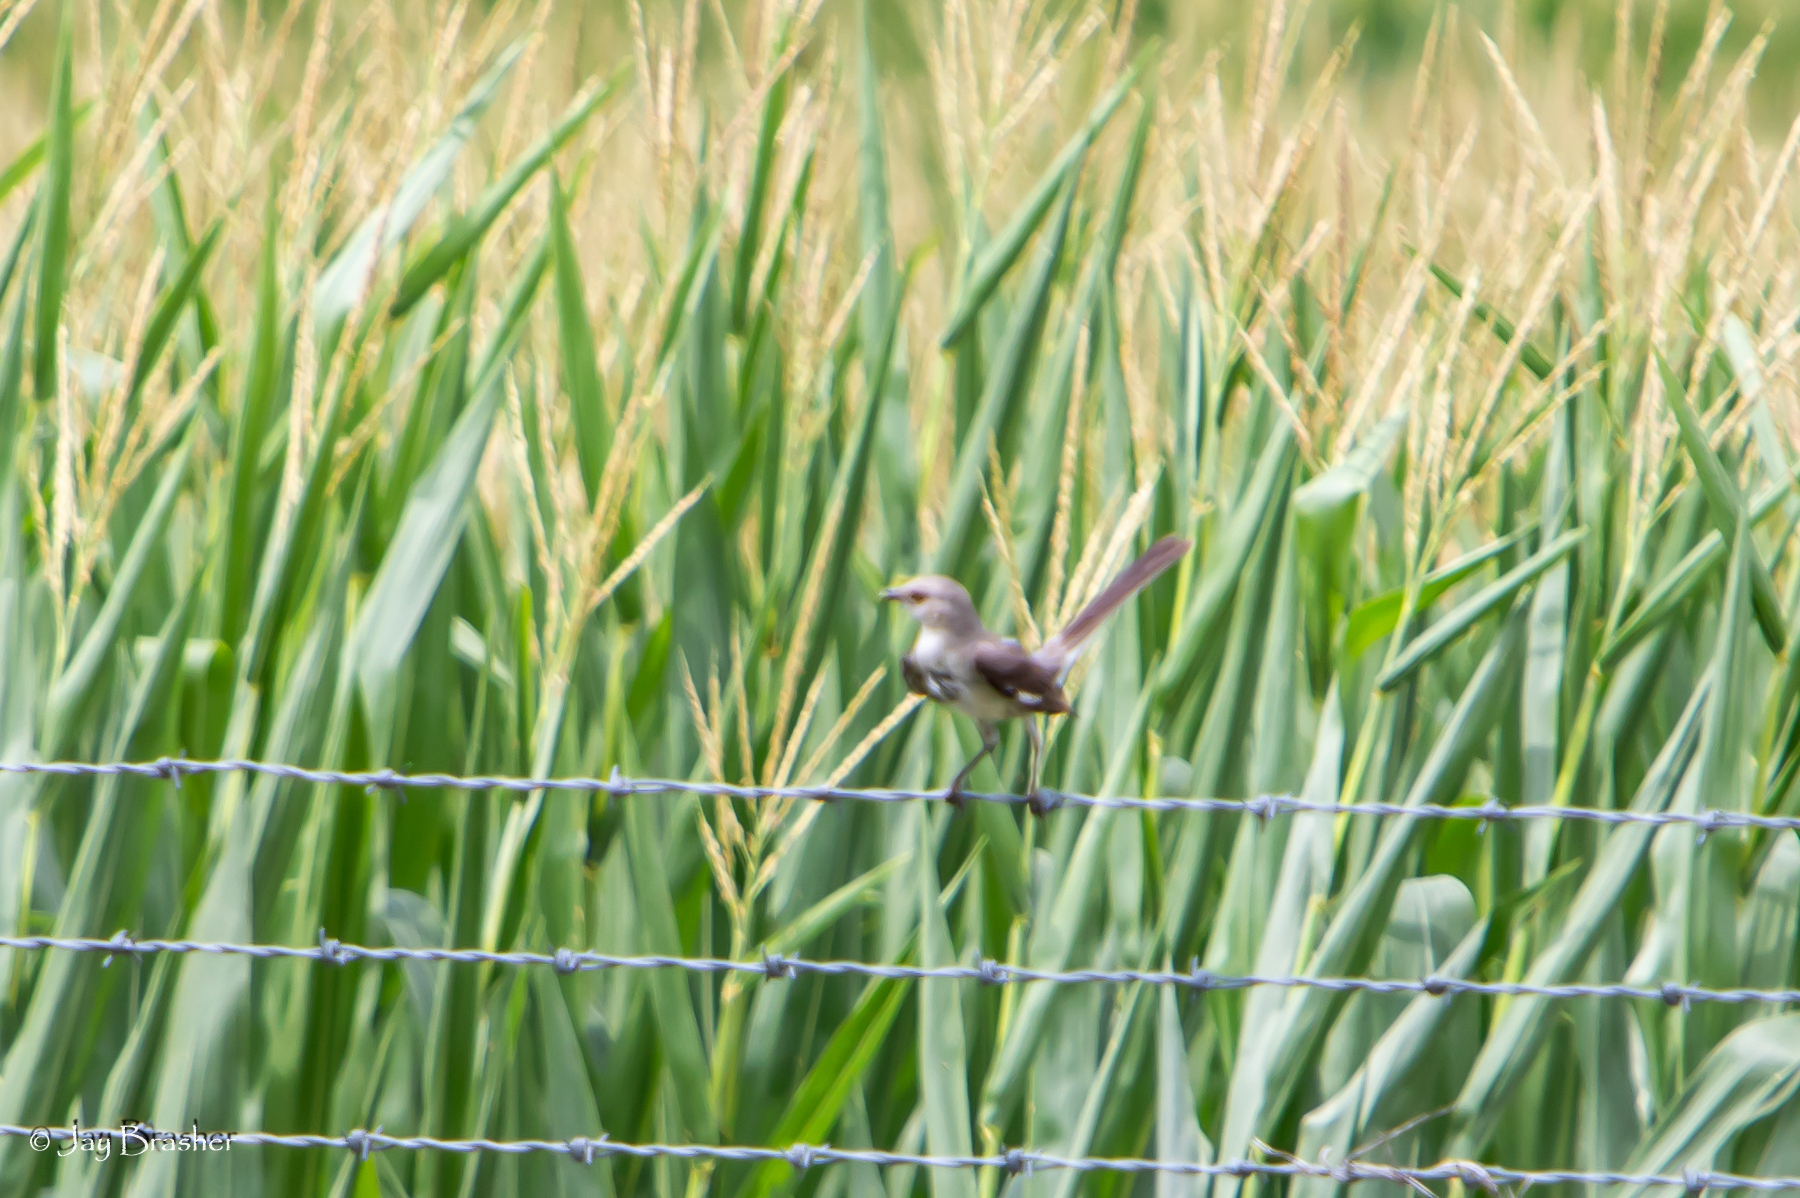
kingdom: Animalia
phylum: Chordata
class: Aves
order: Passeriformes
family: Mimidae
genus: Mimus
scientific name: Mimus polyglottos
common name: Northern mockingbird
